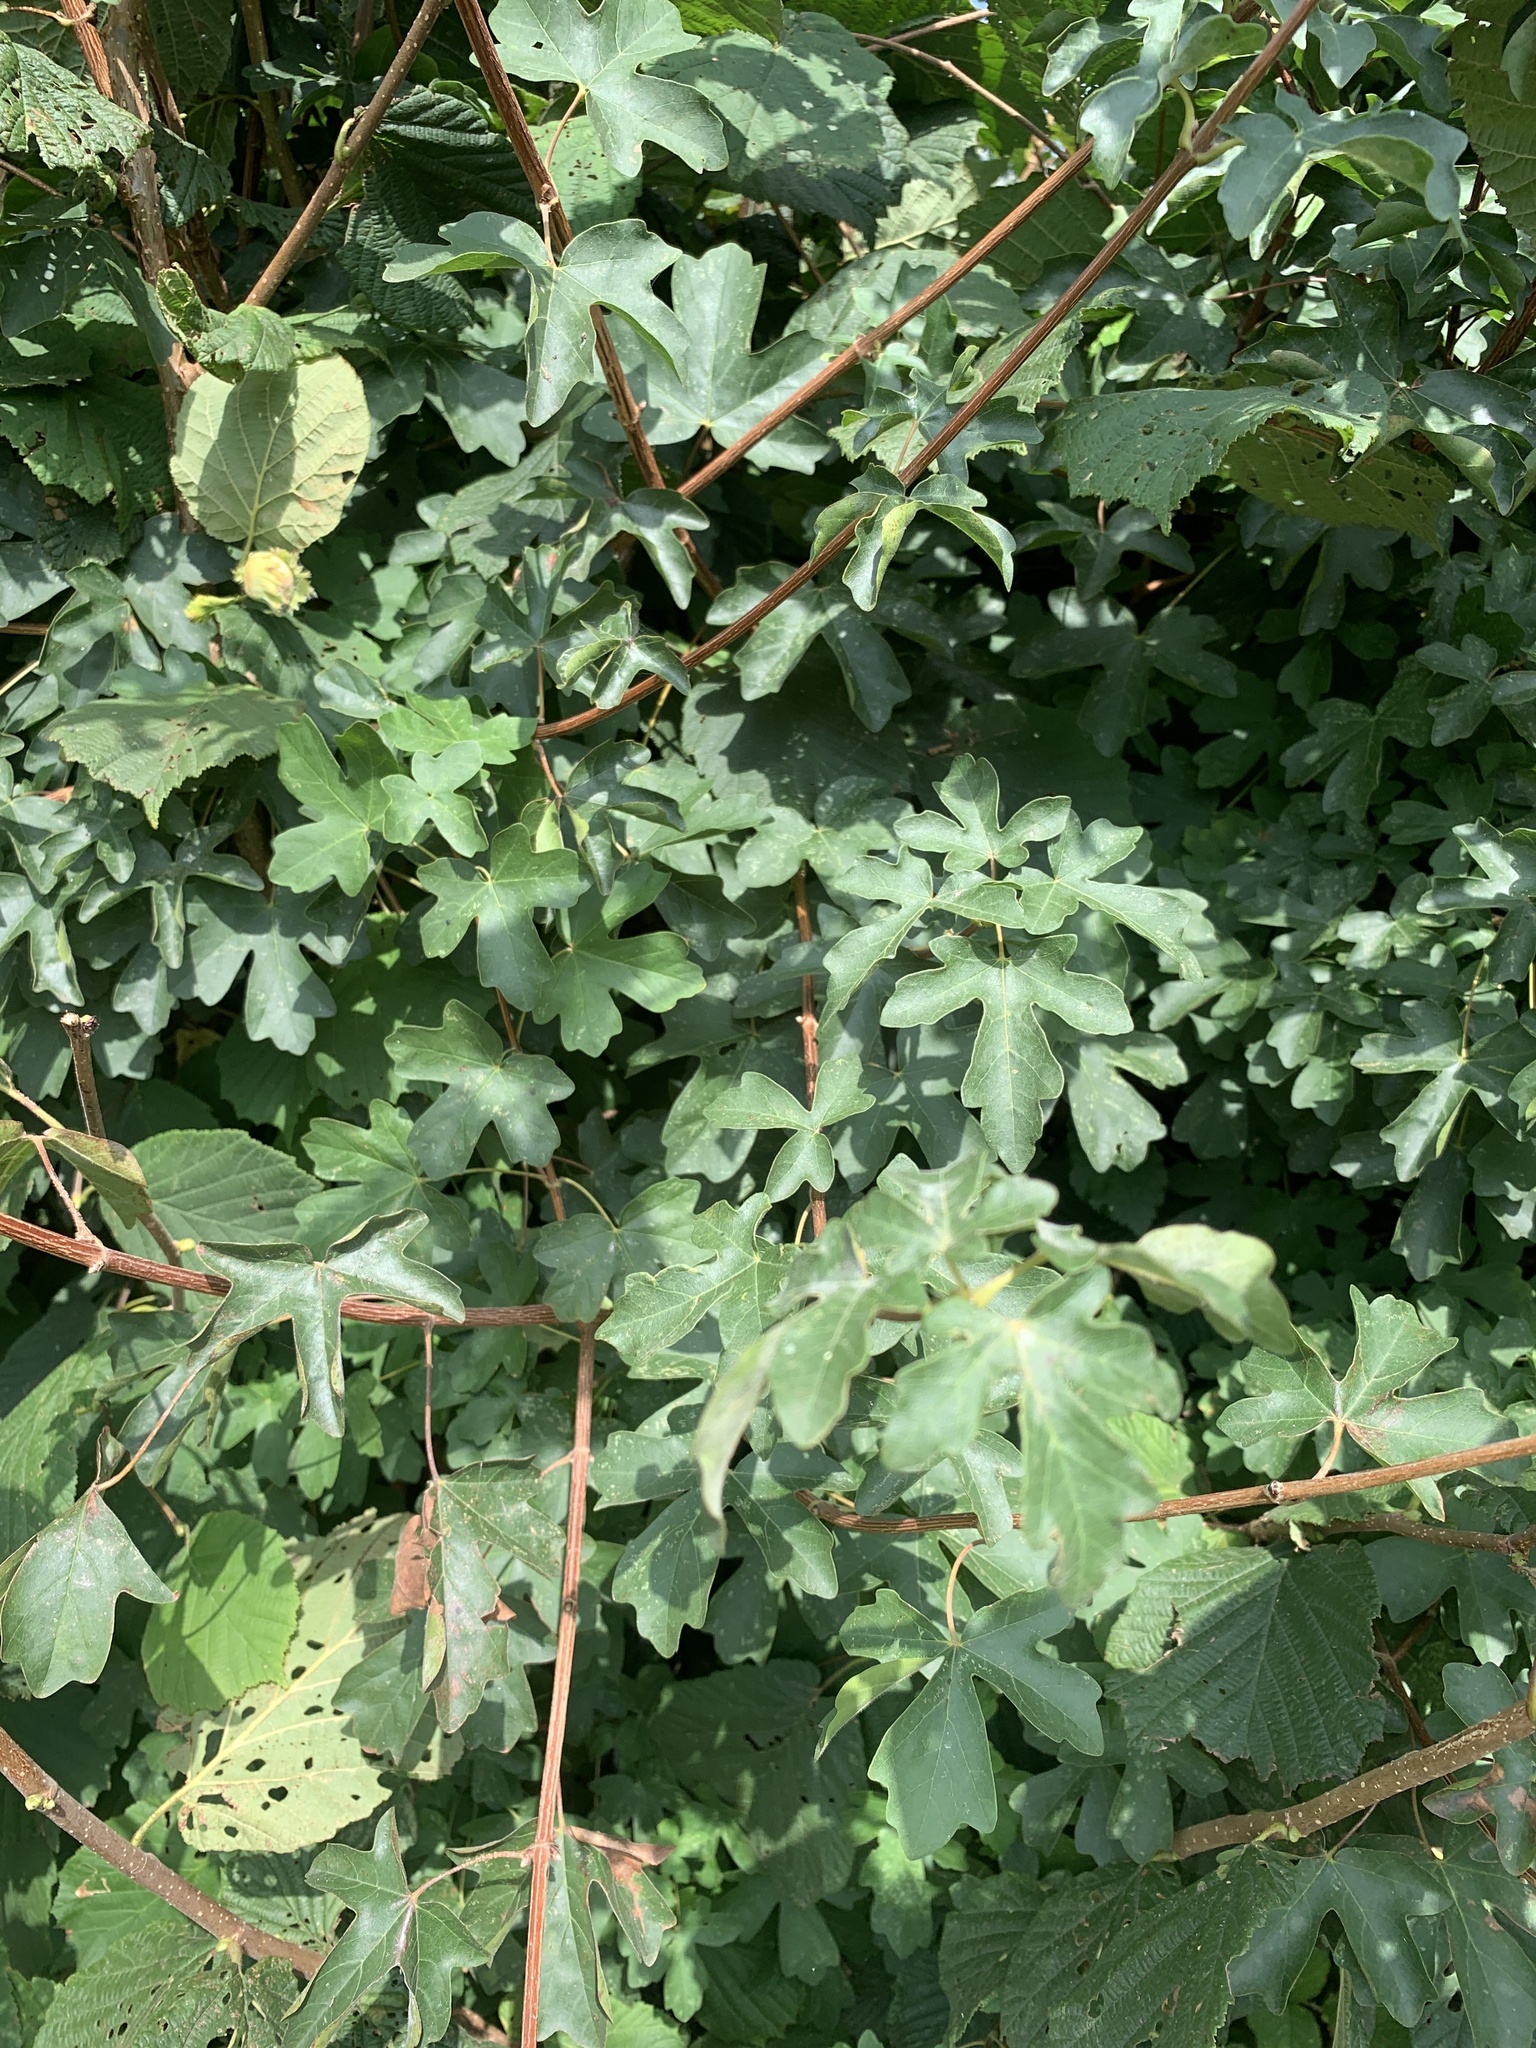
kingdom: Plantae
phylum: Tracheophyta
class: Magnoliopsida
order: Sapindales
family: Sapindaceae
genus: Acer
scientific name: Acer campestre
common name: Field maple
